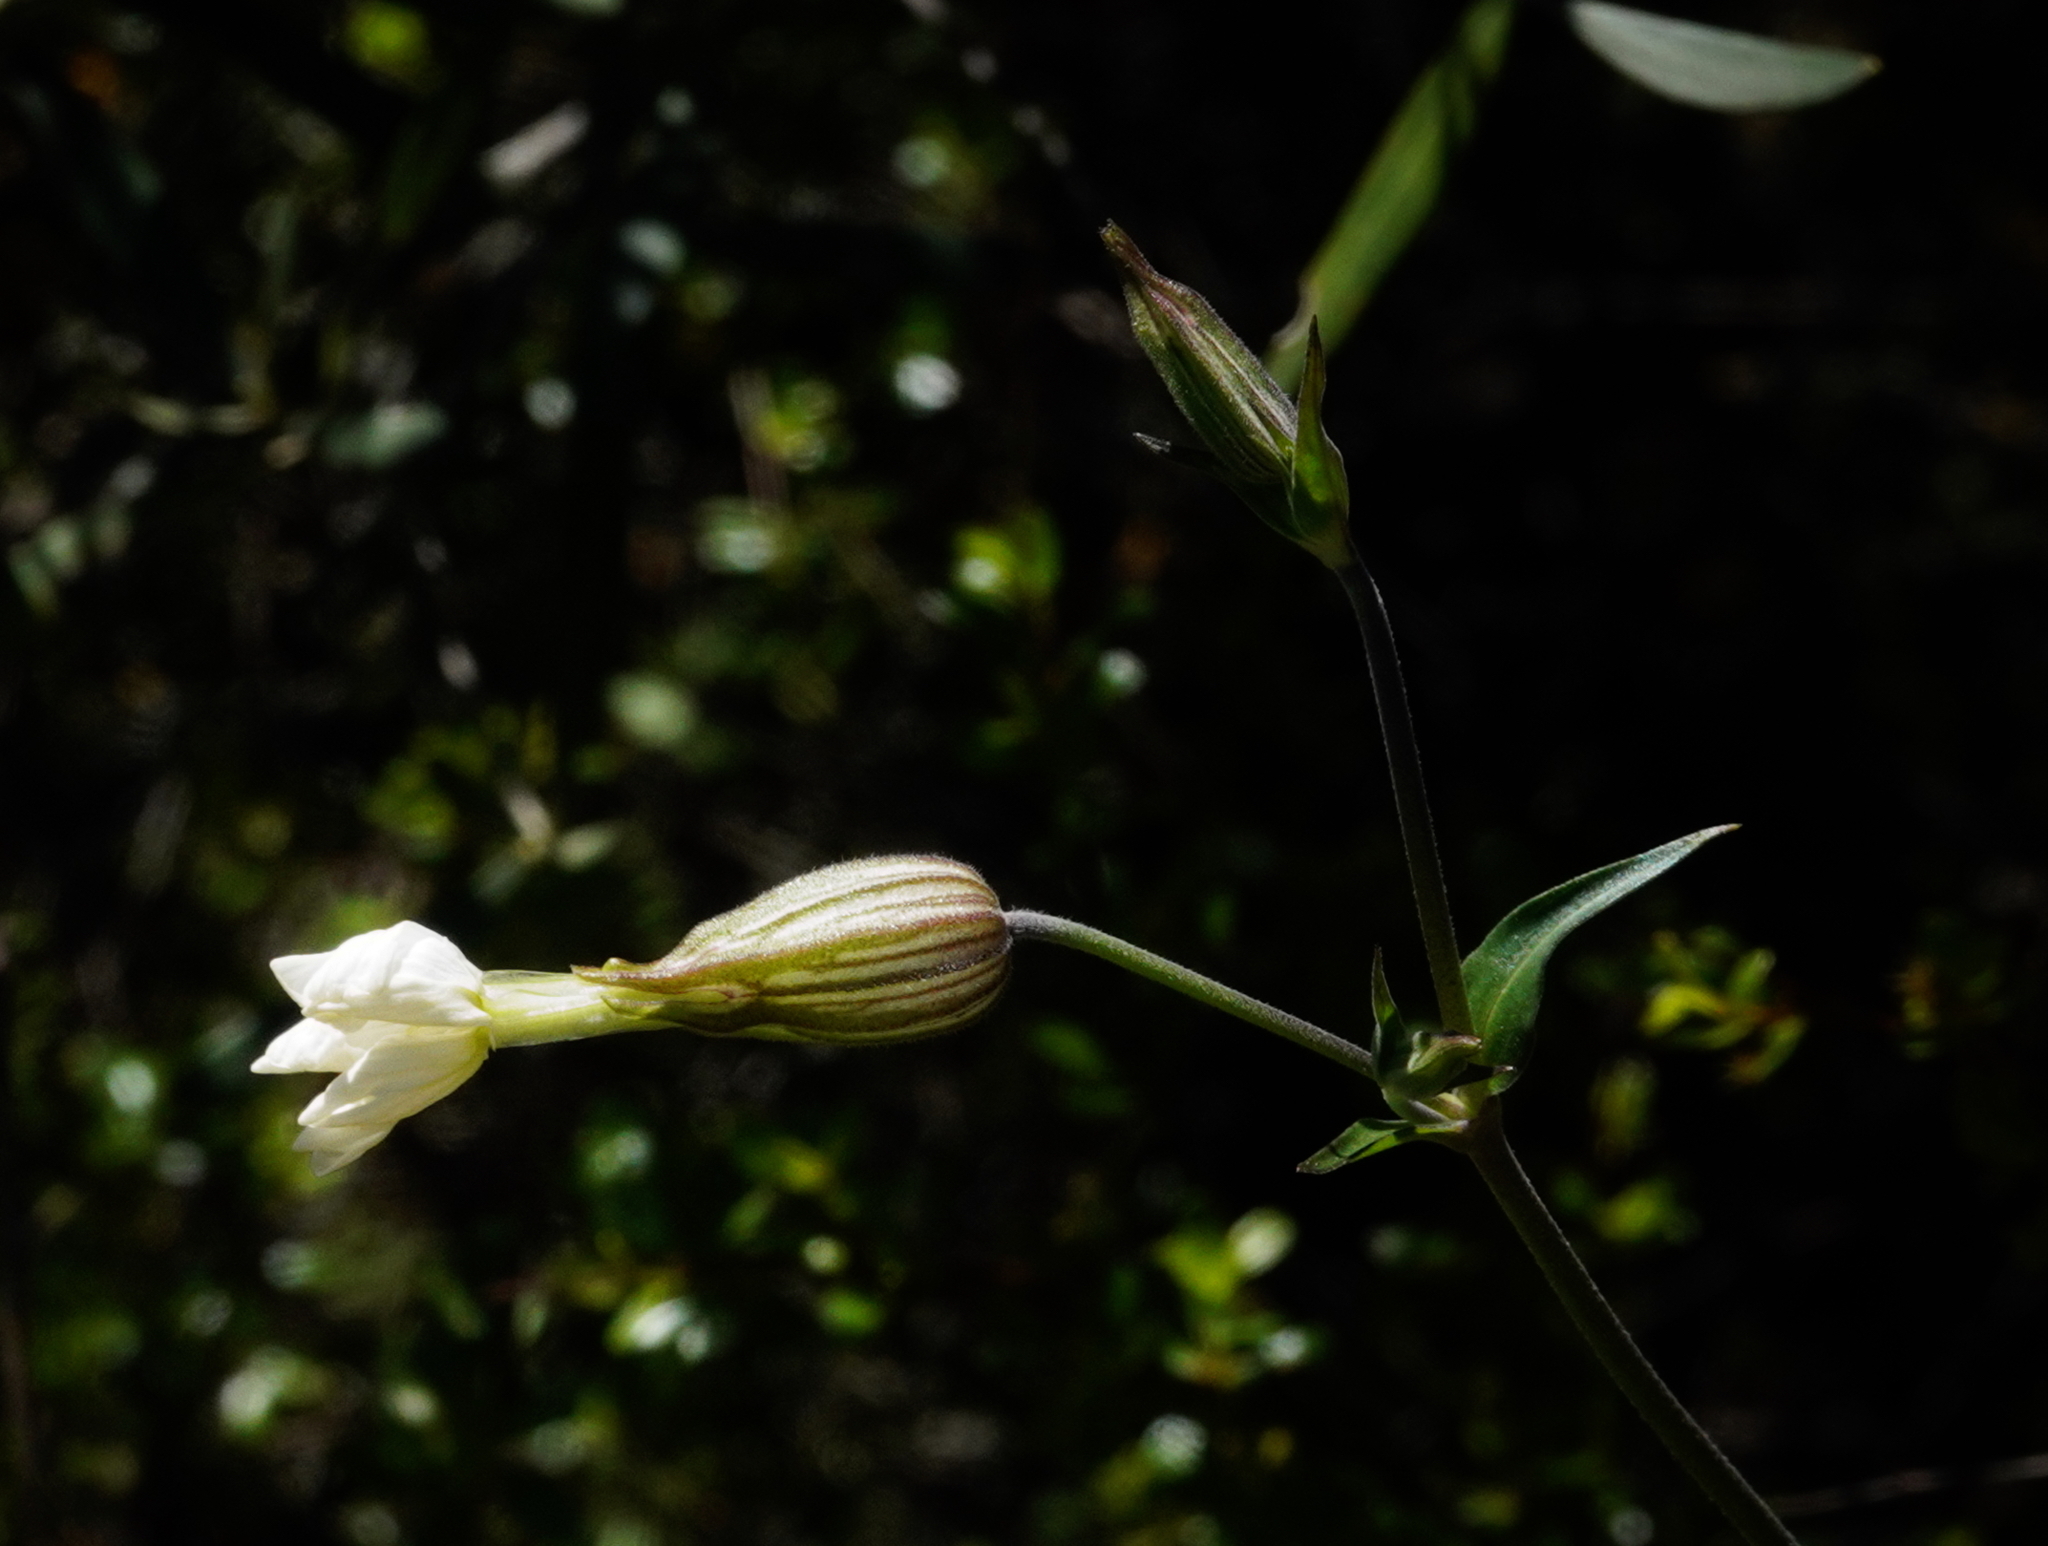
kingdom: Plantae
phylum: Tracheophyta
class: Magnoliopsida
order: Caryophyllales
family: Caryophyllaceae
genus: Silene
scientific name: Silene latifolia
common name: White campion
